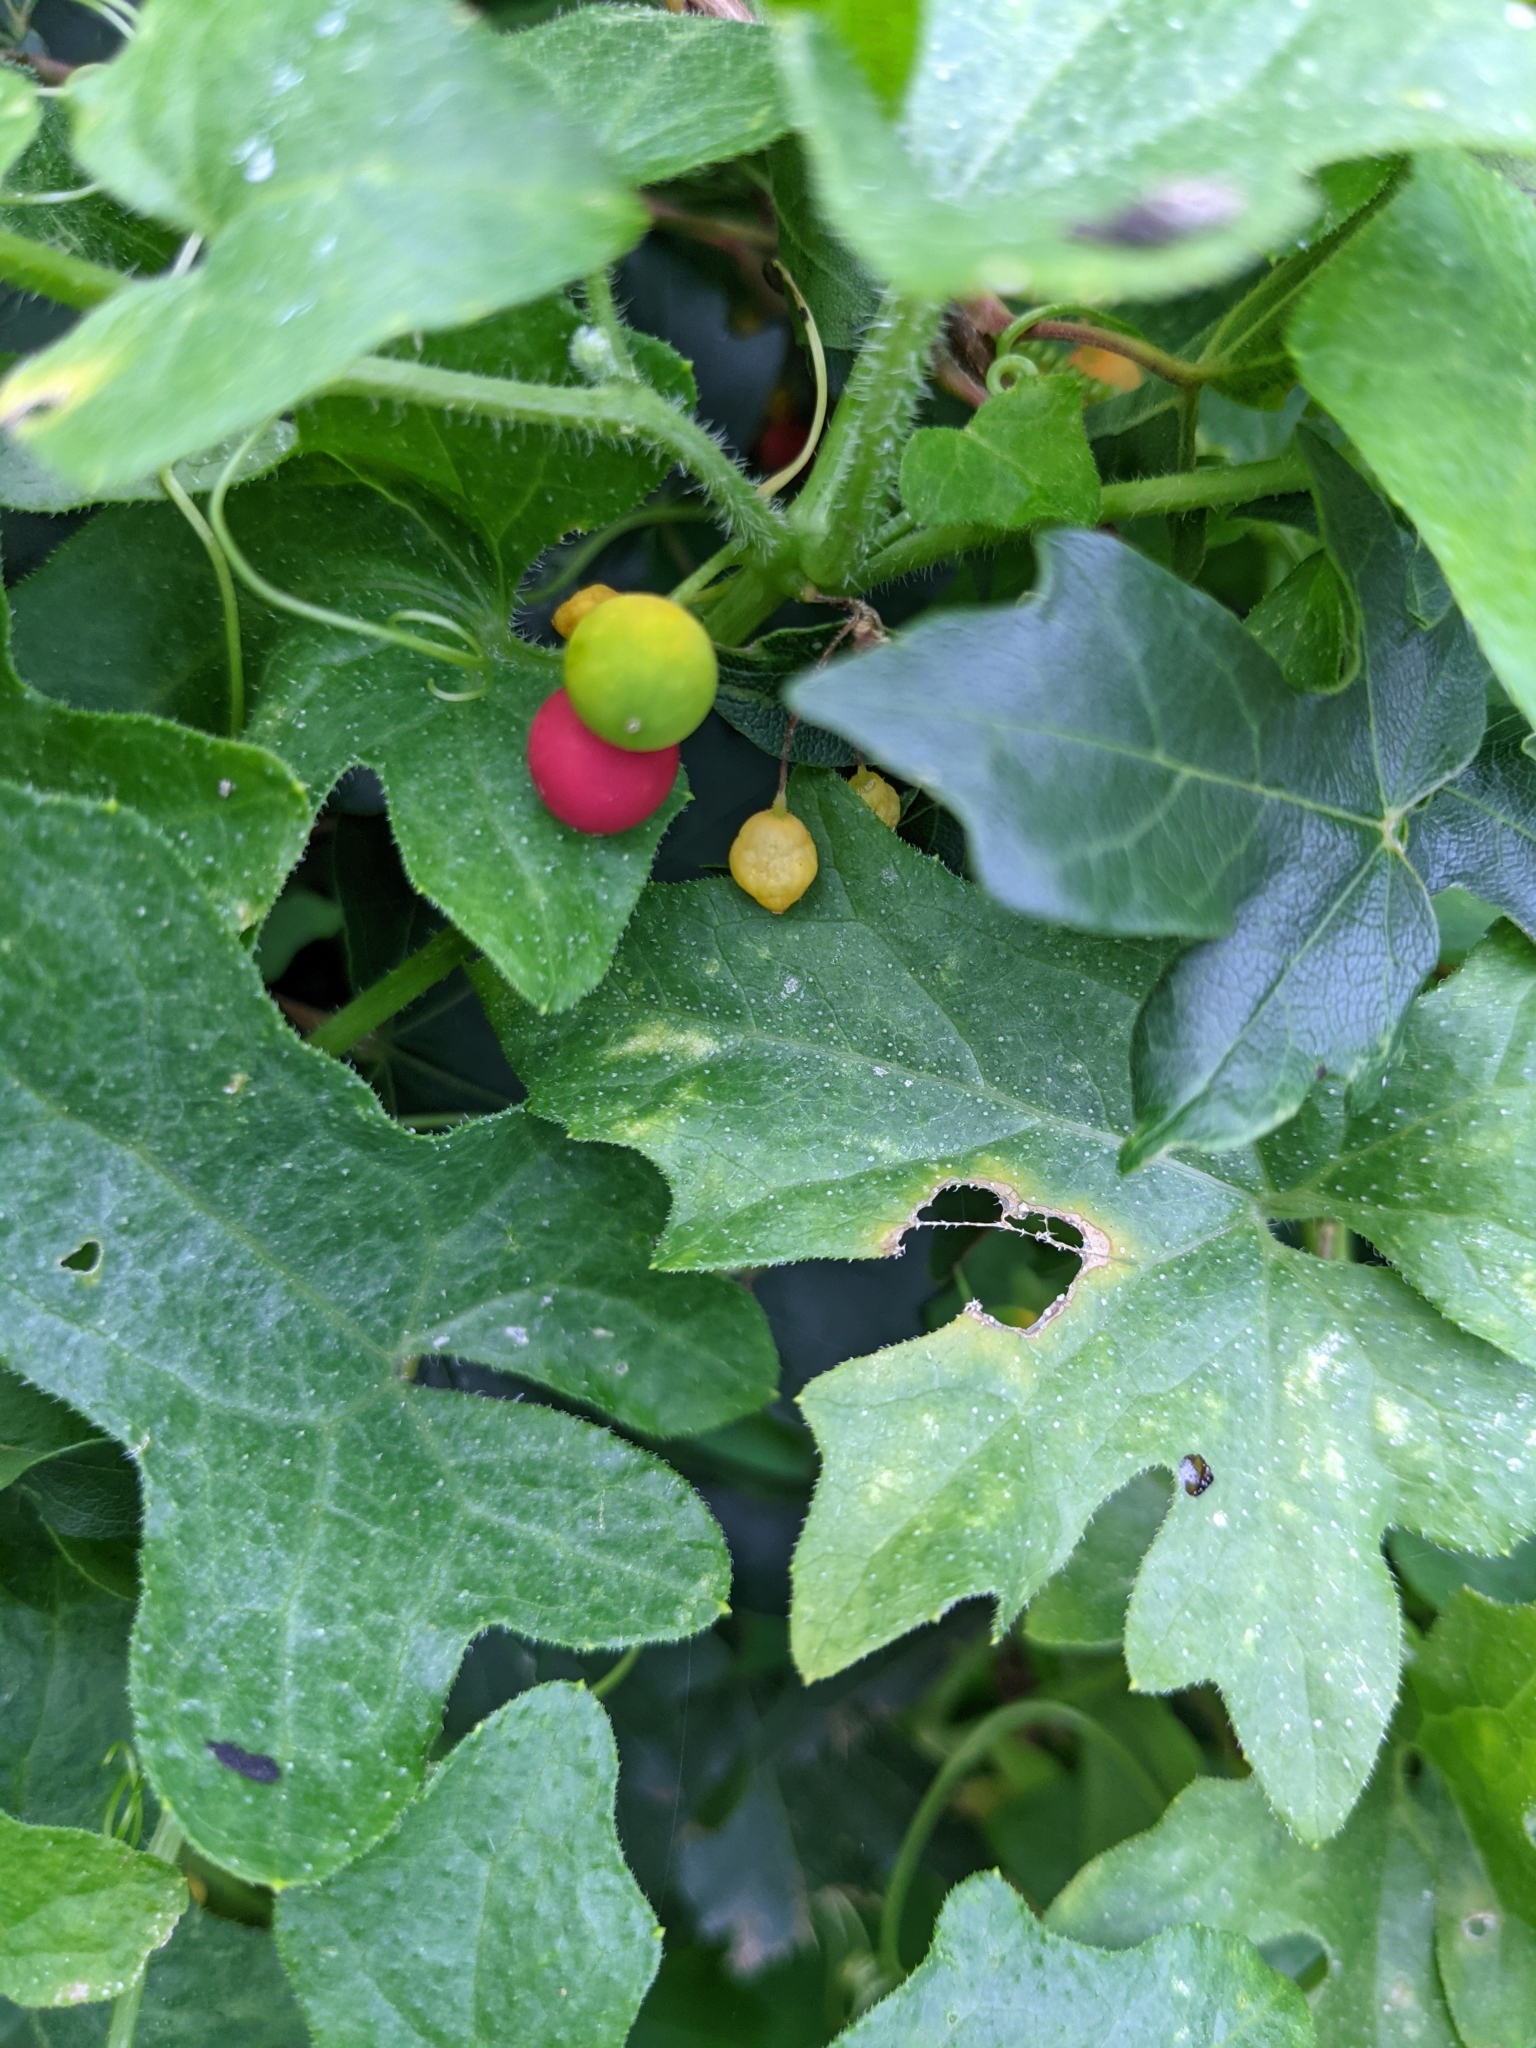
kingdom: Plantae
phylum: Tracheophyta
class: Magnoliopsida
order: Cucurbitales
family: Cucurbitaceae
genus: Bryonia
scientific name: Bryonia cretica
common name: Cretan bryony
